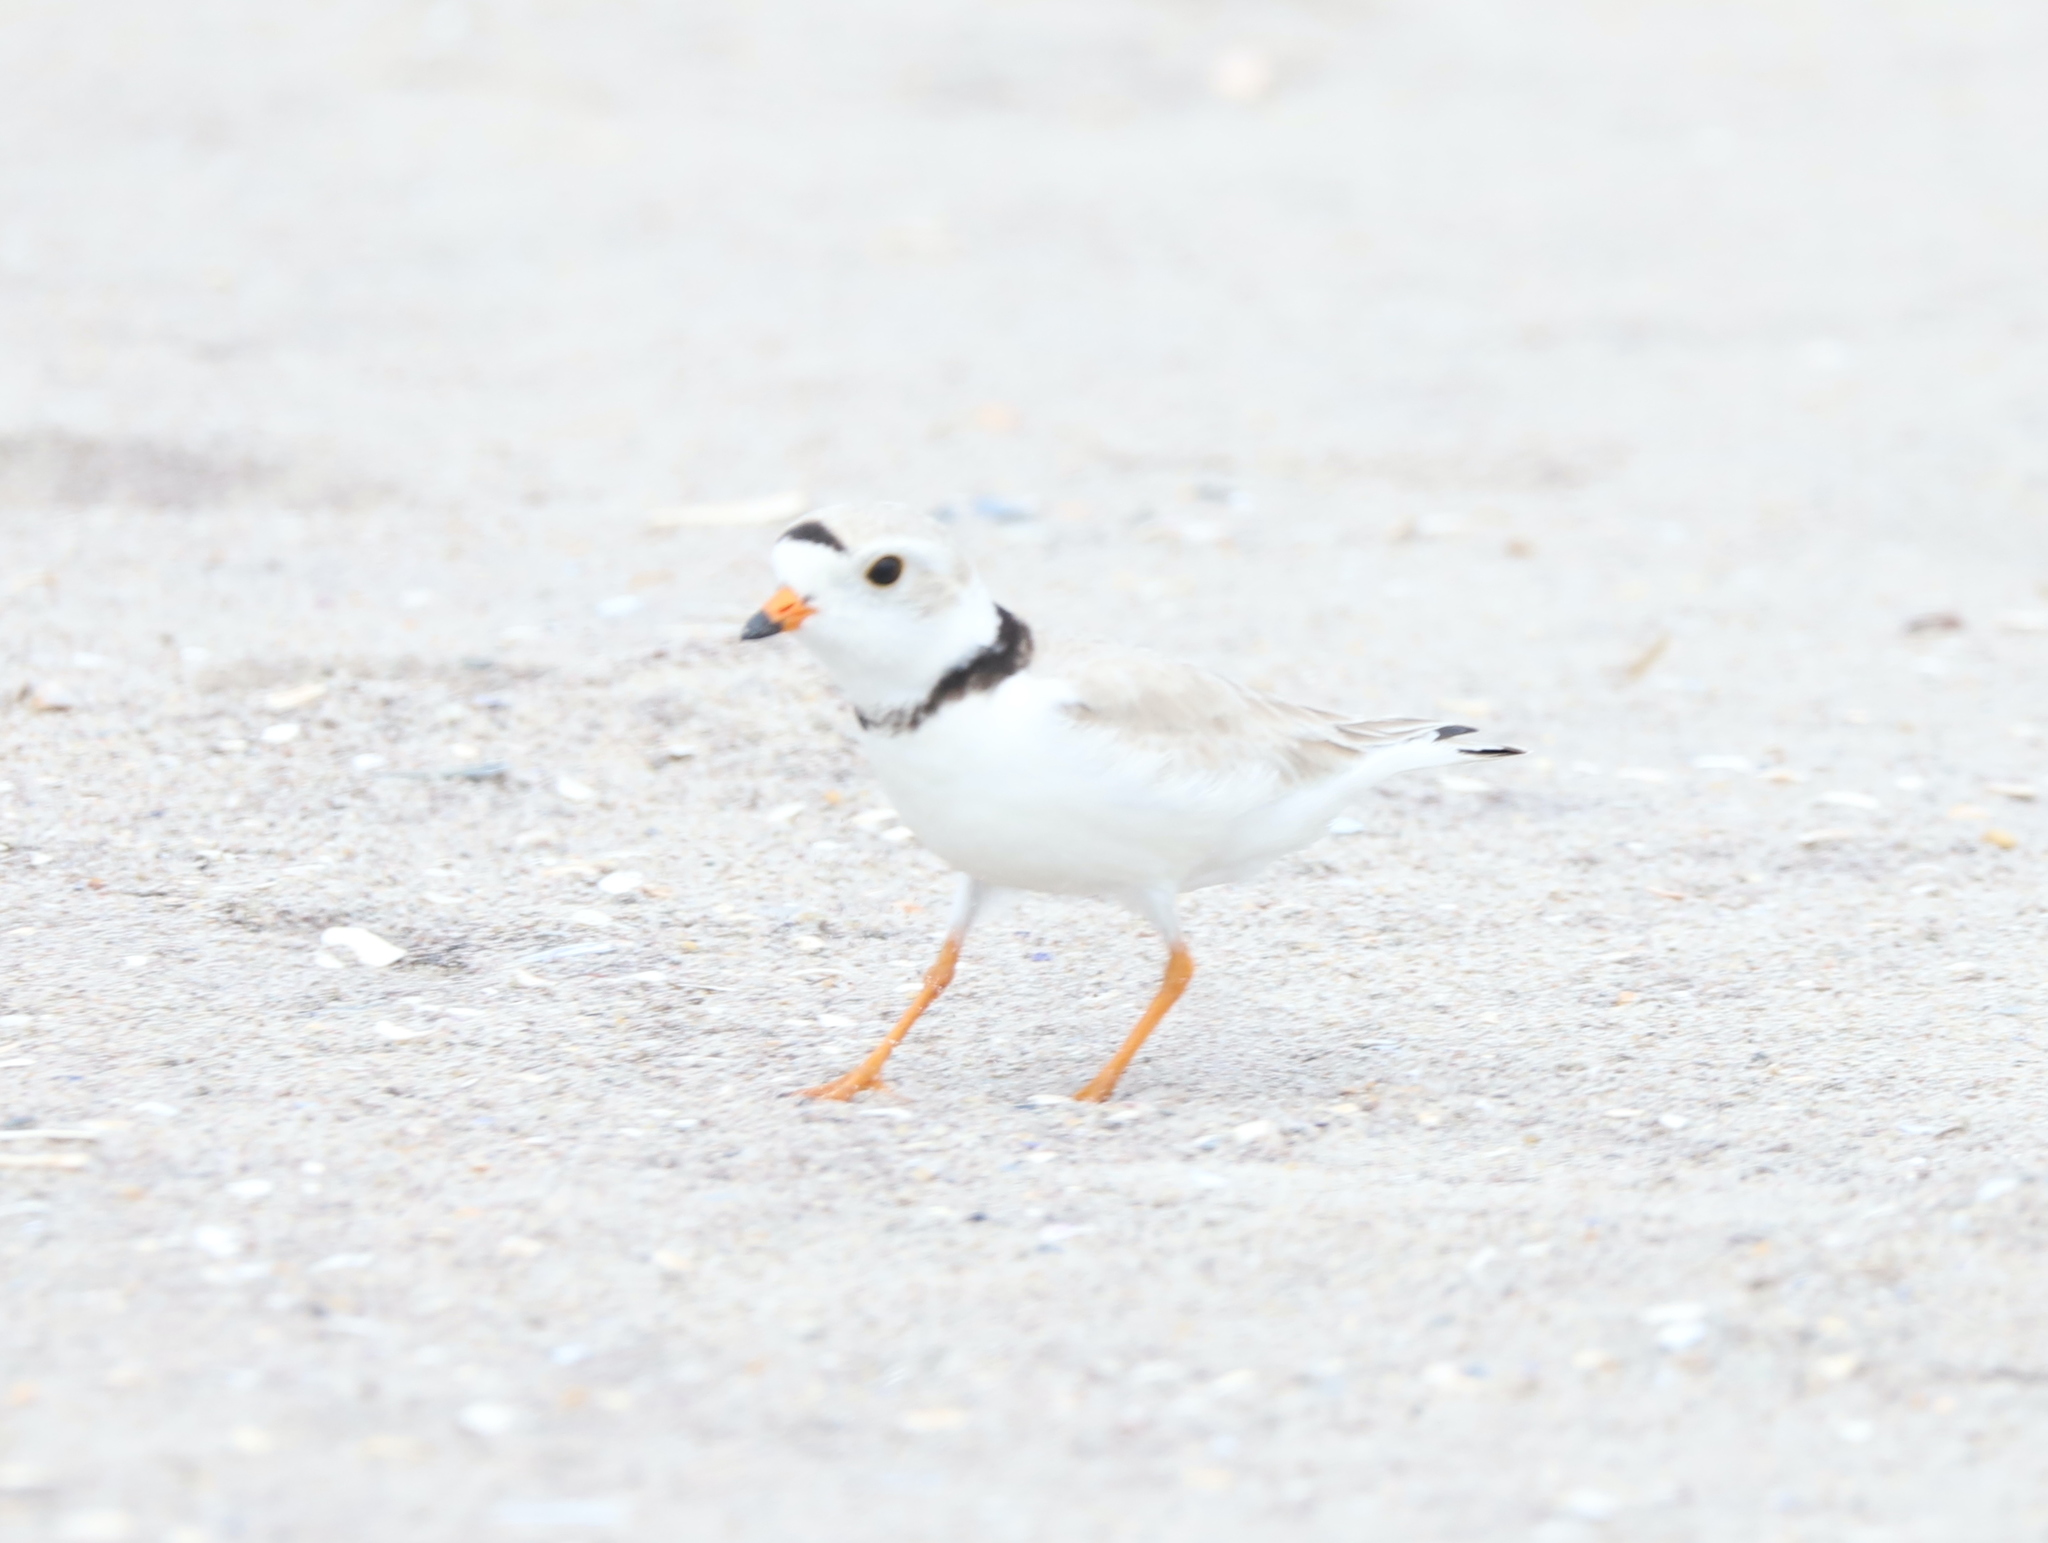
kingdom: Animalia
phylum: Chordata
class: Aves
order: Charadriiformes
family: Charadriidae
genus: Charadrius
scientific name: Charadrius melodus
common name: Piping plover
